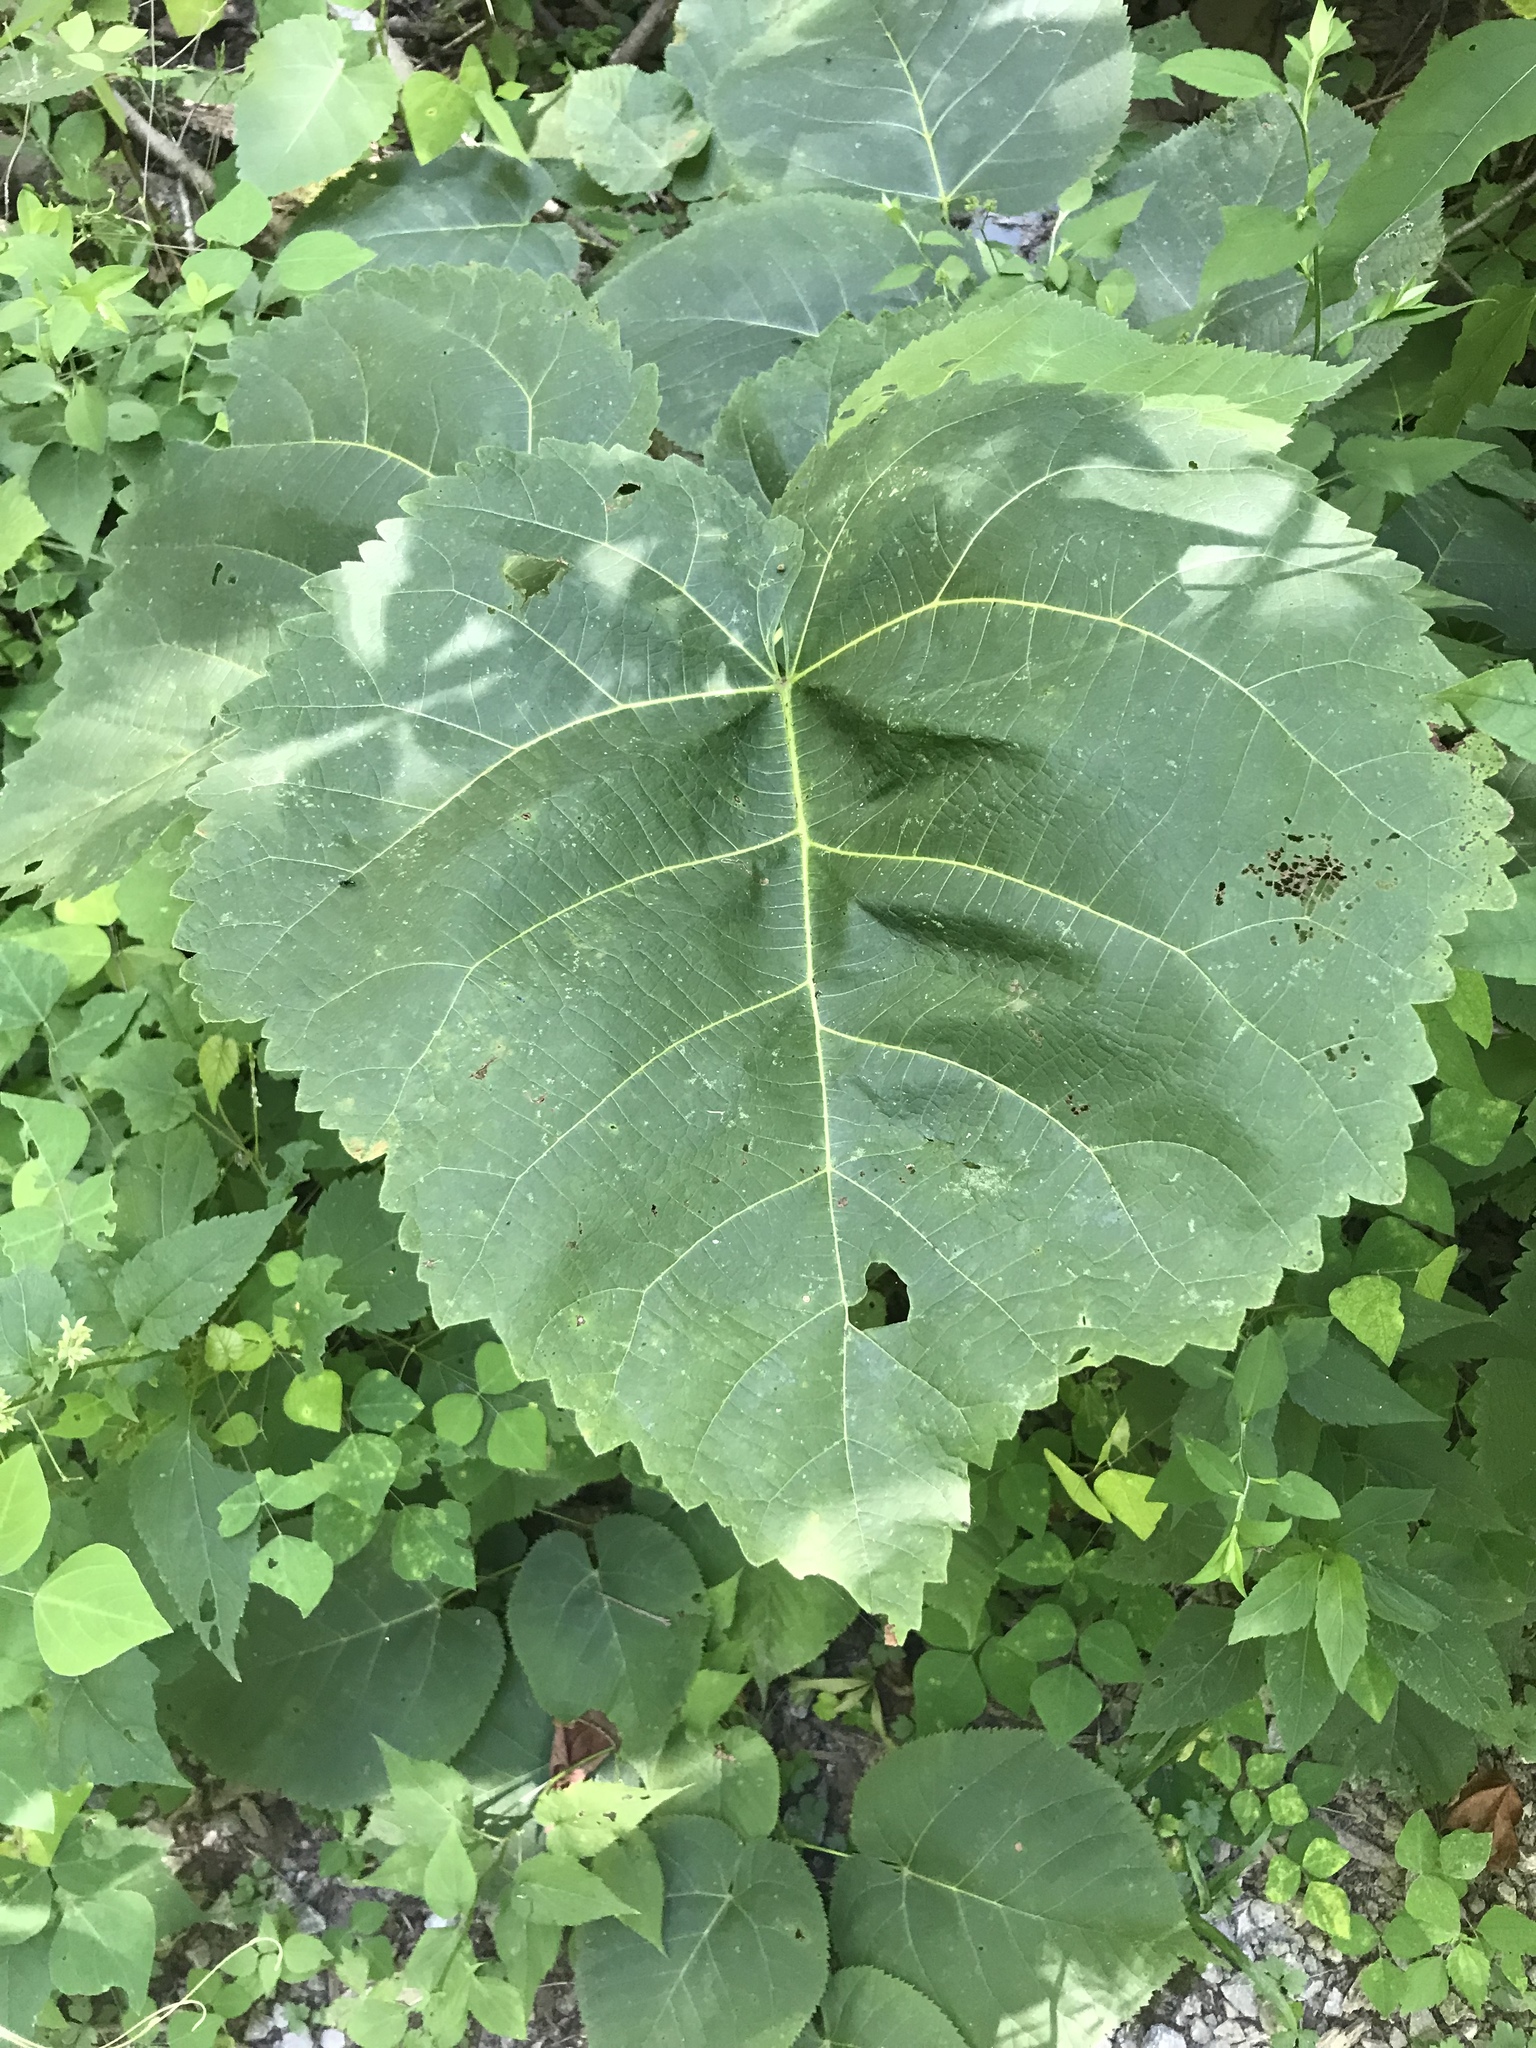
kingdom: Plantae
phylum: Tracheophyta
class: Magnoliopsida
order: Lamiales
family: Paulowniaceae
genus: Paulownia
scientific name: Paulownia tomentosa
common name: Foxglove-tree
